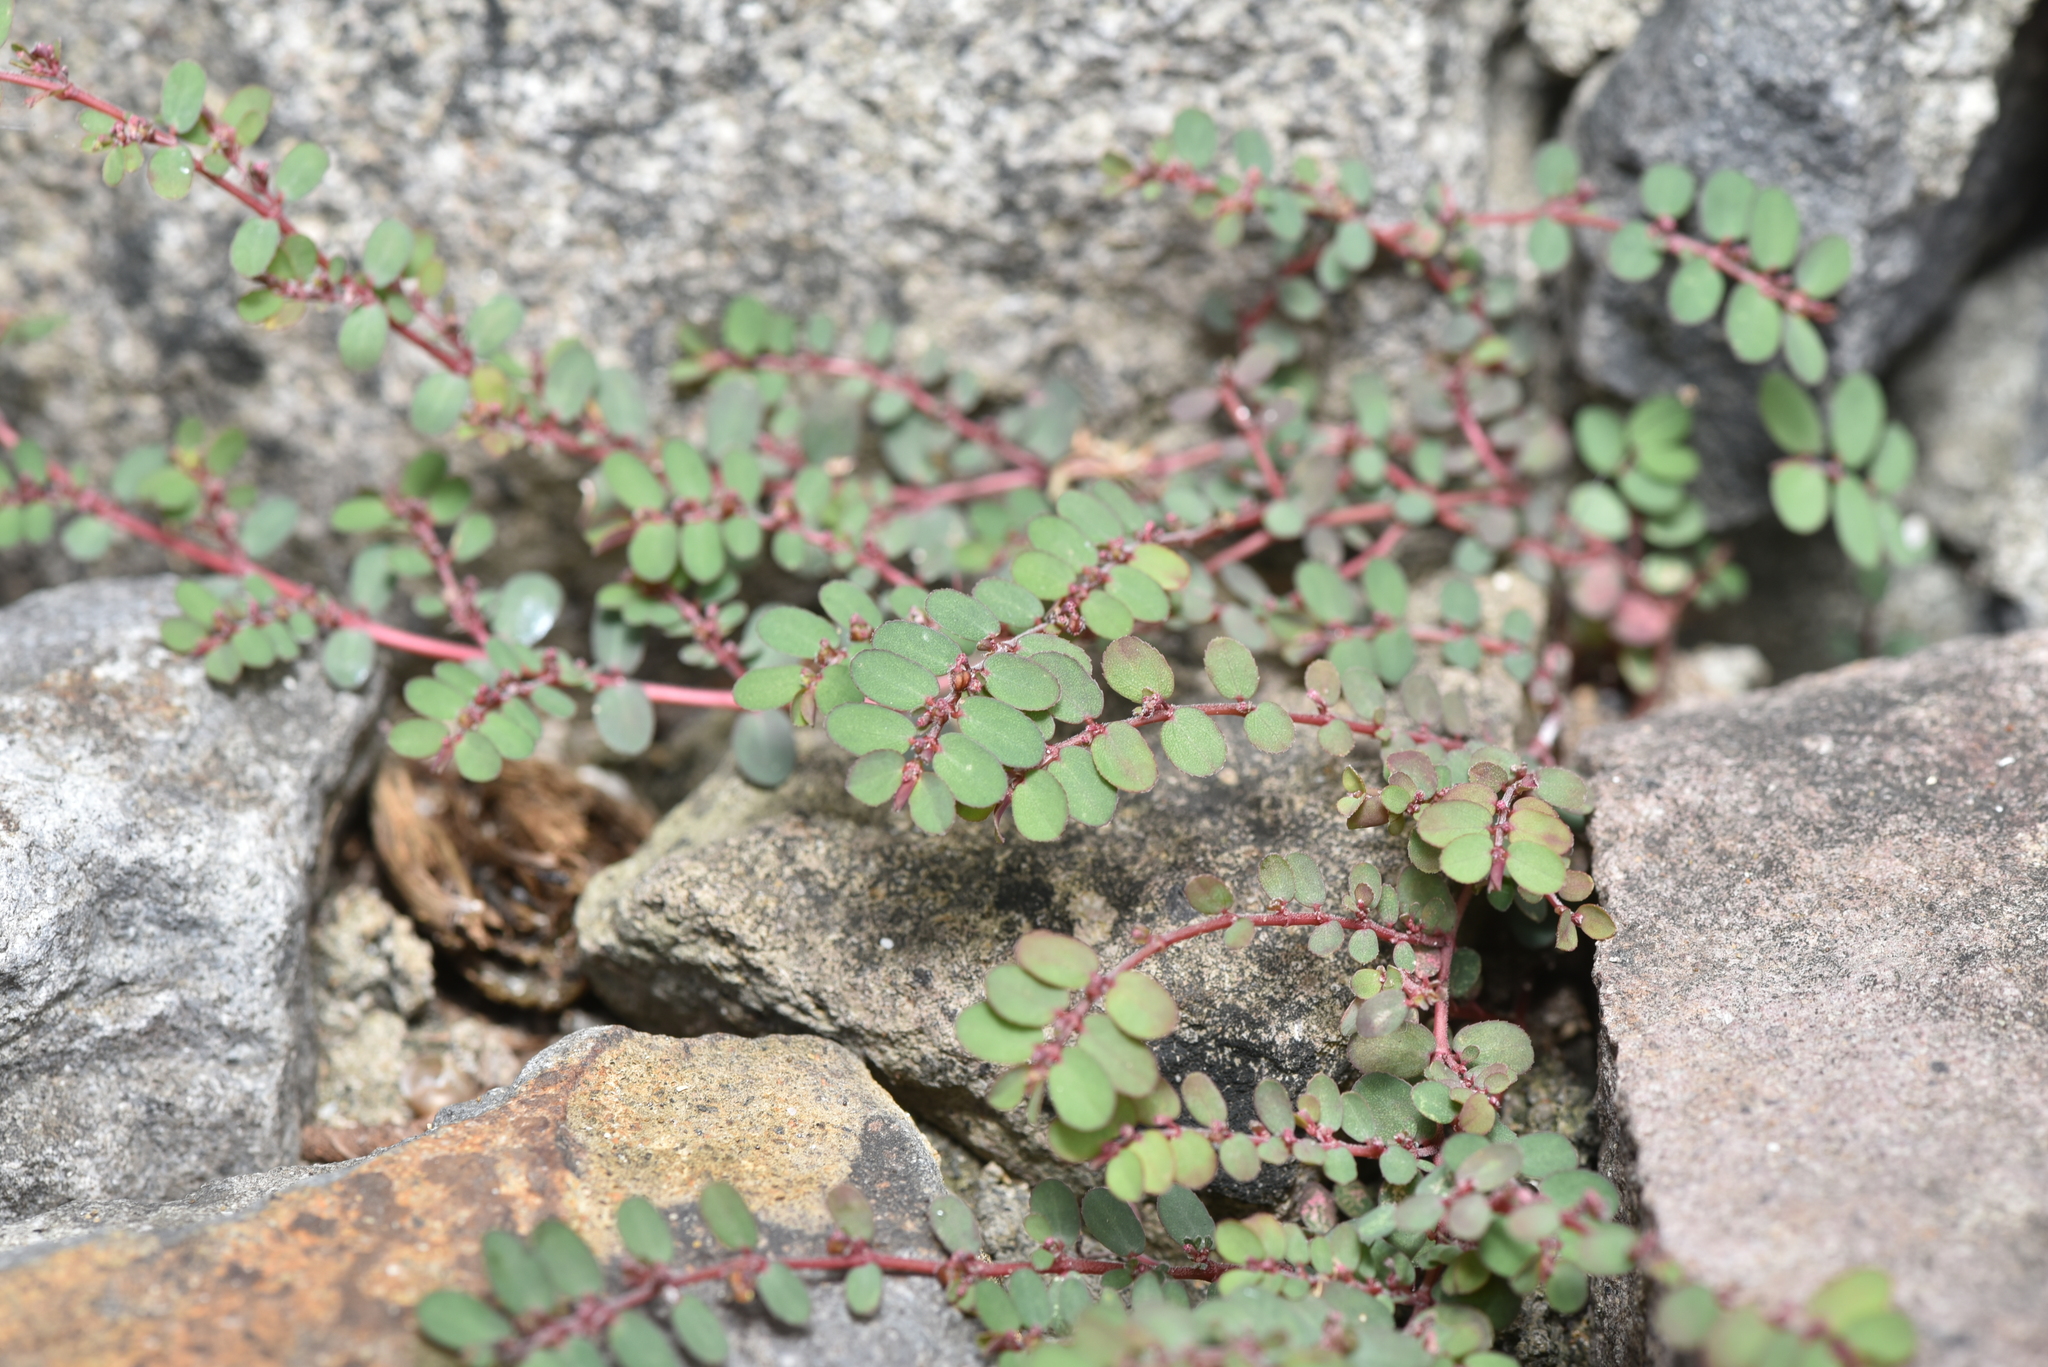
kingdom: Plantae
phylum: Tracheophyta
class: Magnoliopsida
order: Malpighiales
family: Euphorbiaceae
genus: Euphorbia
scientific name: Euphorbia prostrata
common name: Prostrate sandmat
